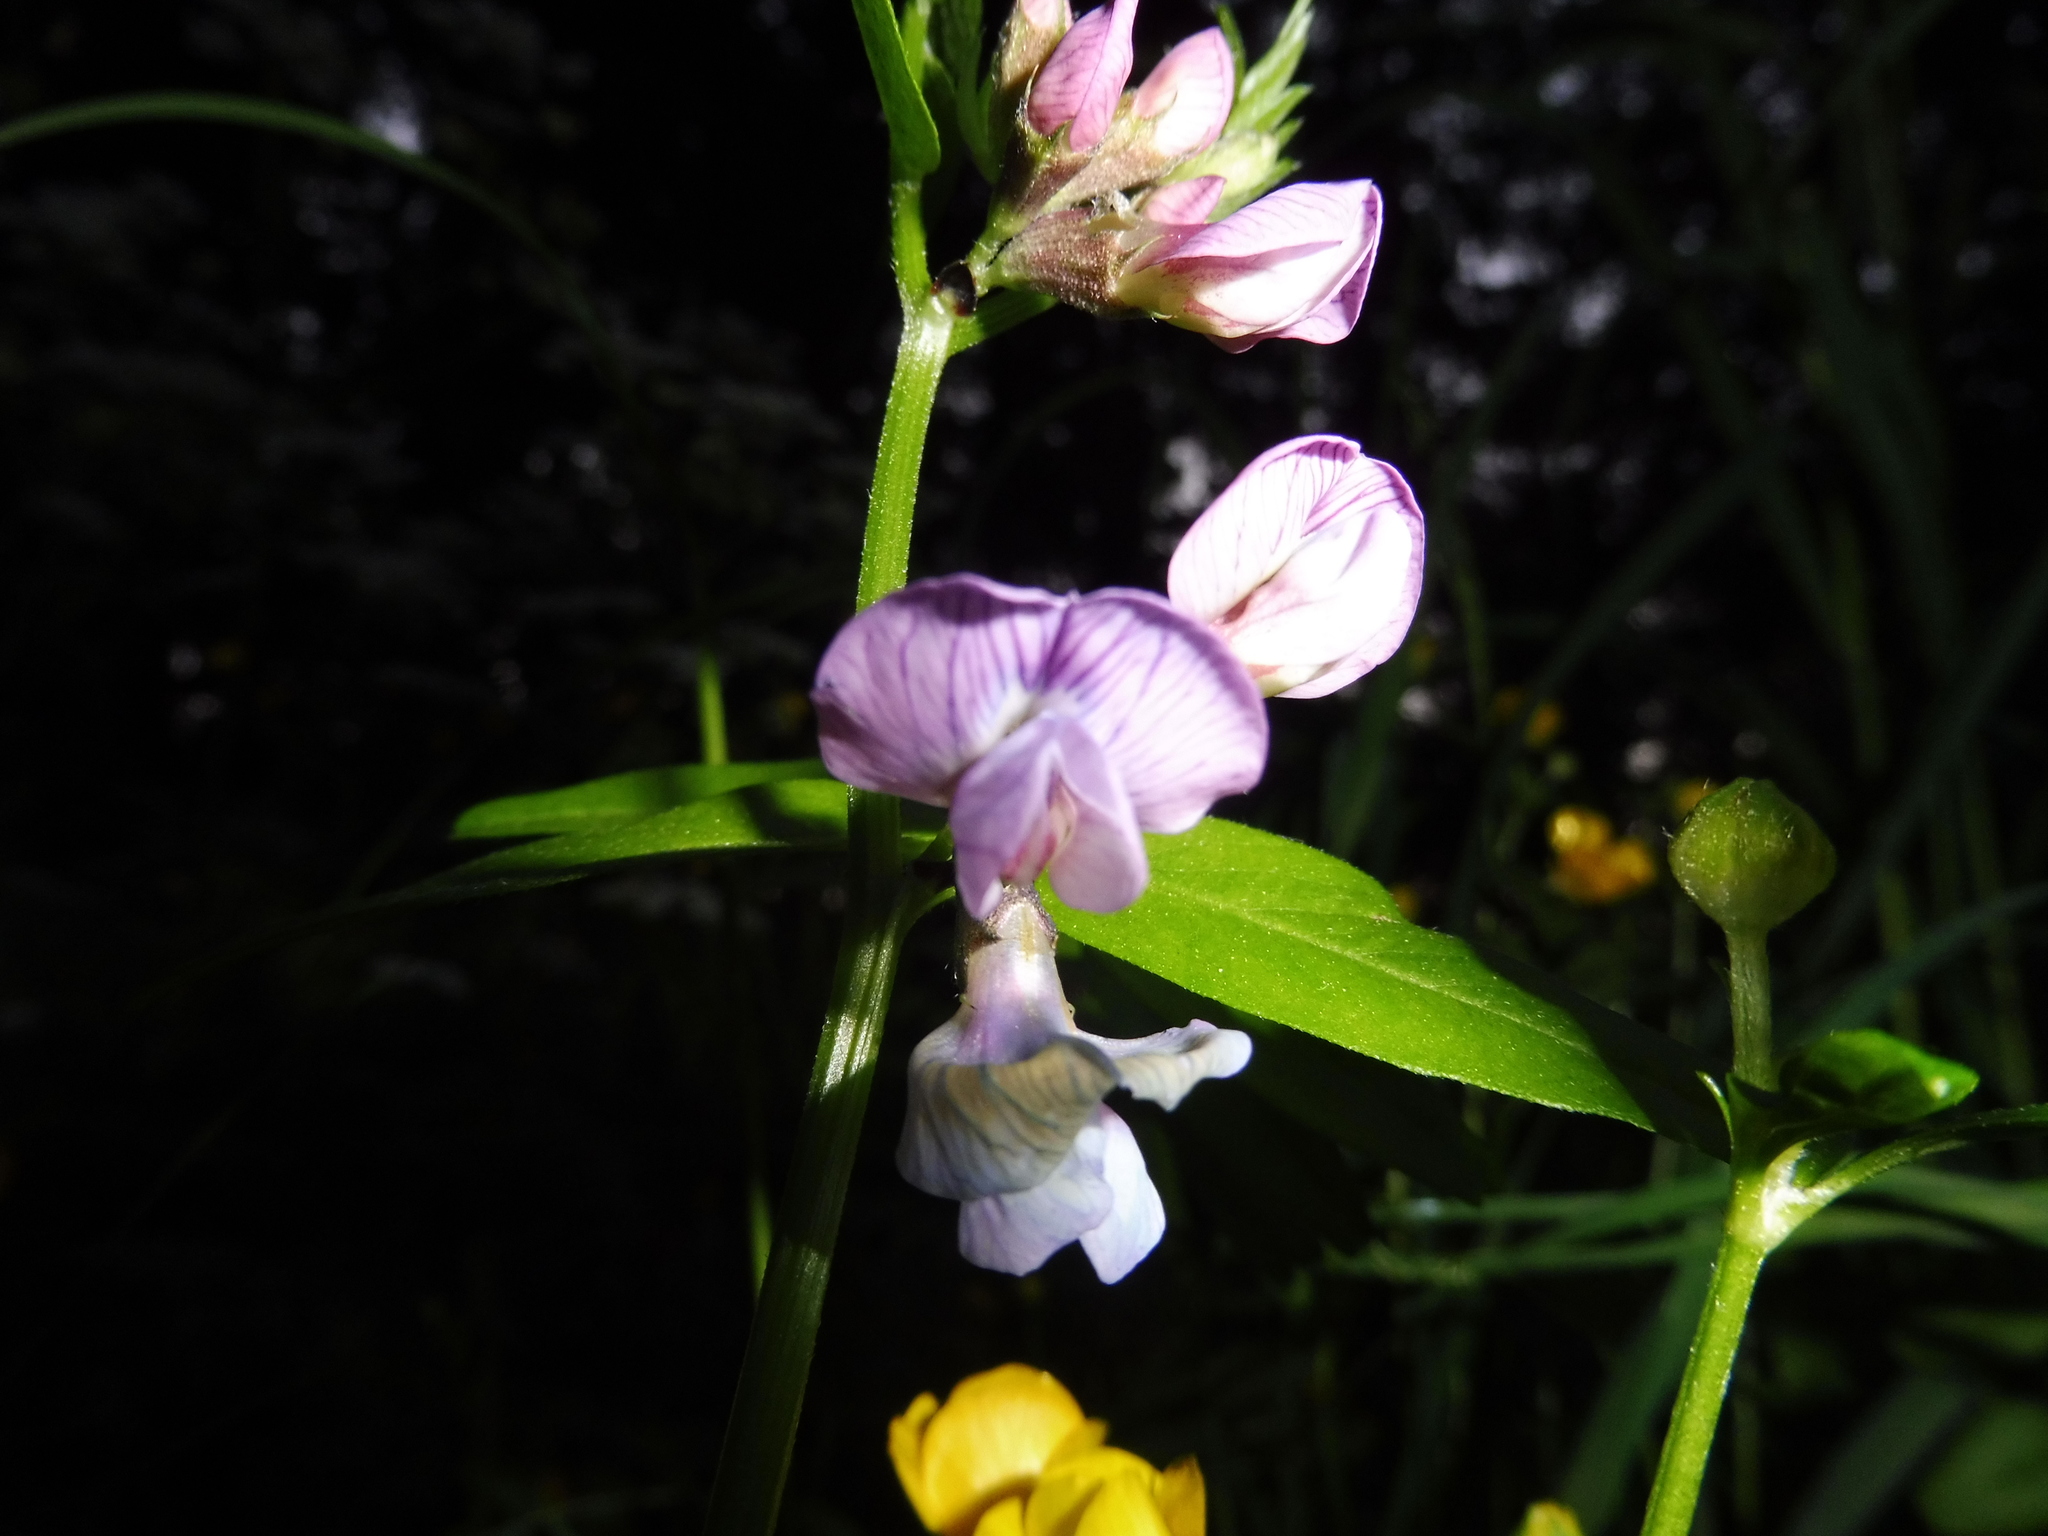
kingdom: Plantae
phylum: Tracheophyta
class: Magnoliopsida
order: Fabales
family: Fabaceae
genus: Vicia
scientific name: Vicia sepium
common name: Bush vetch
